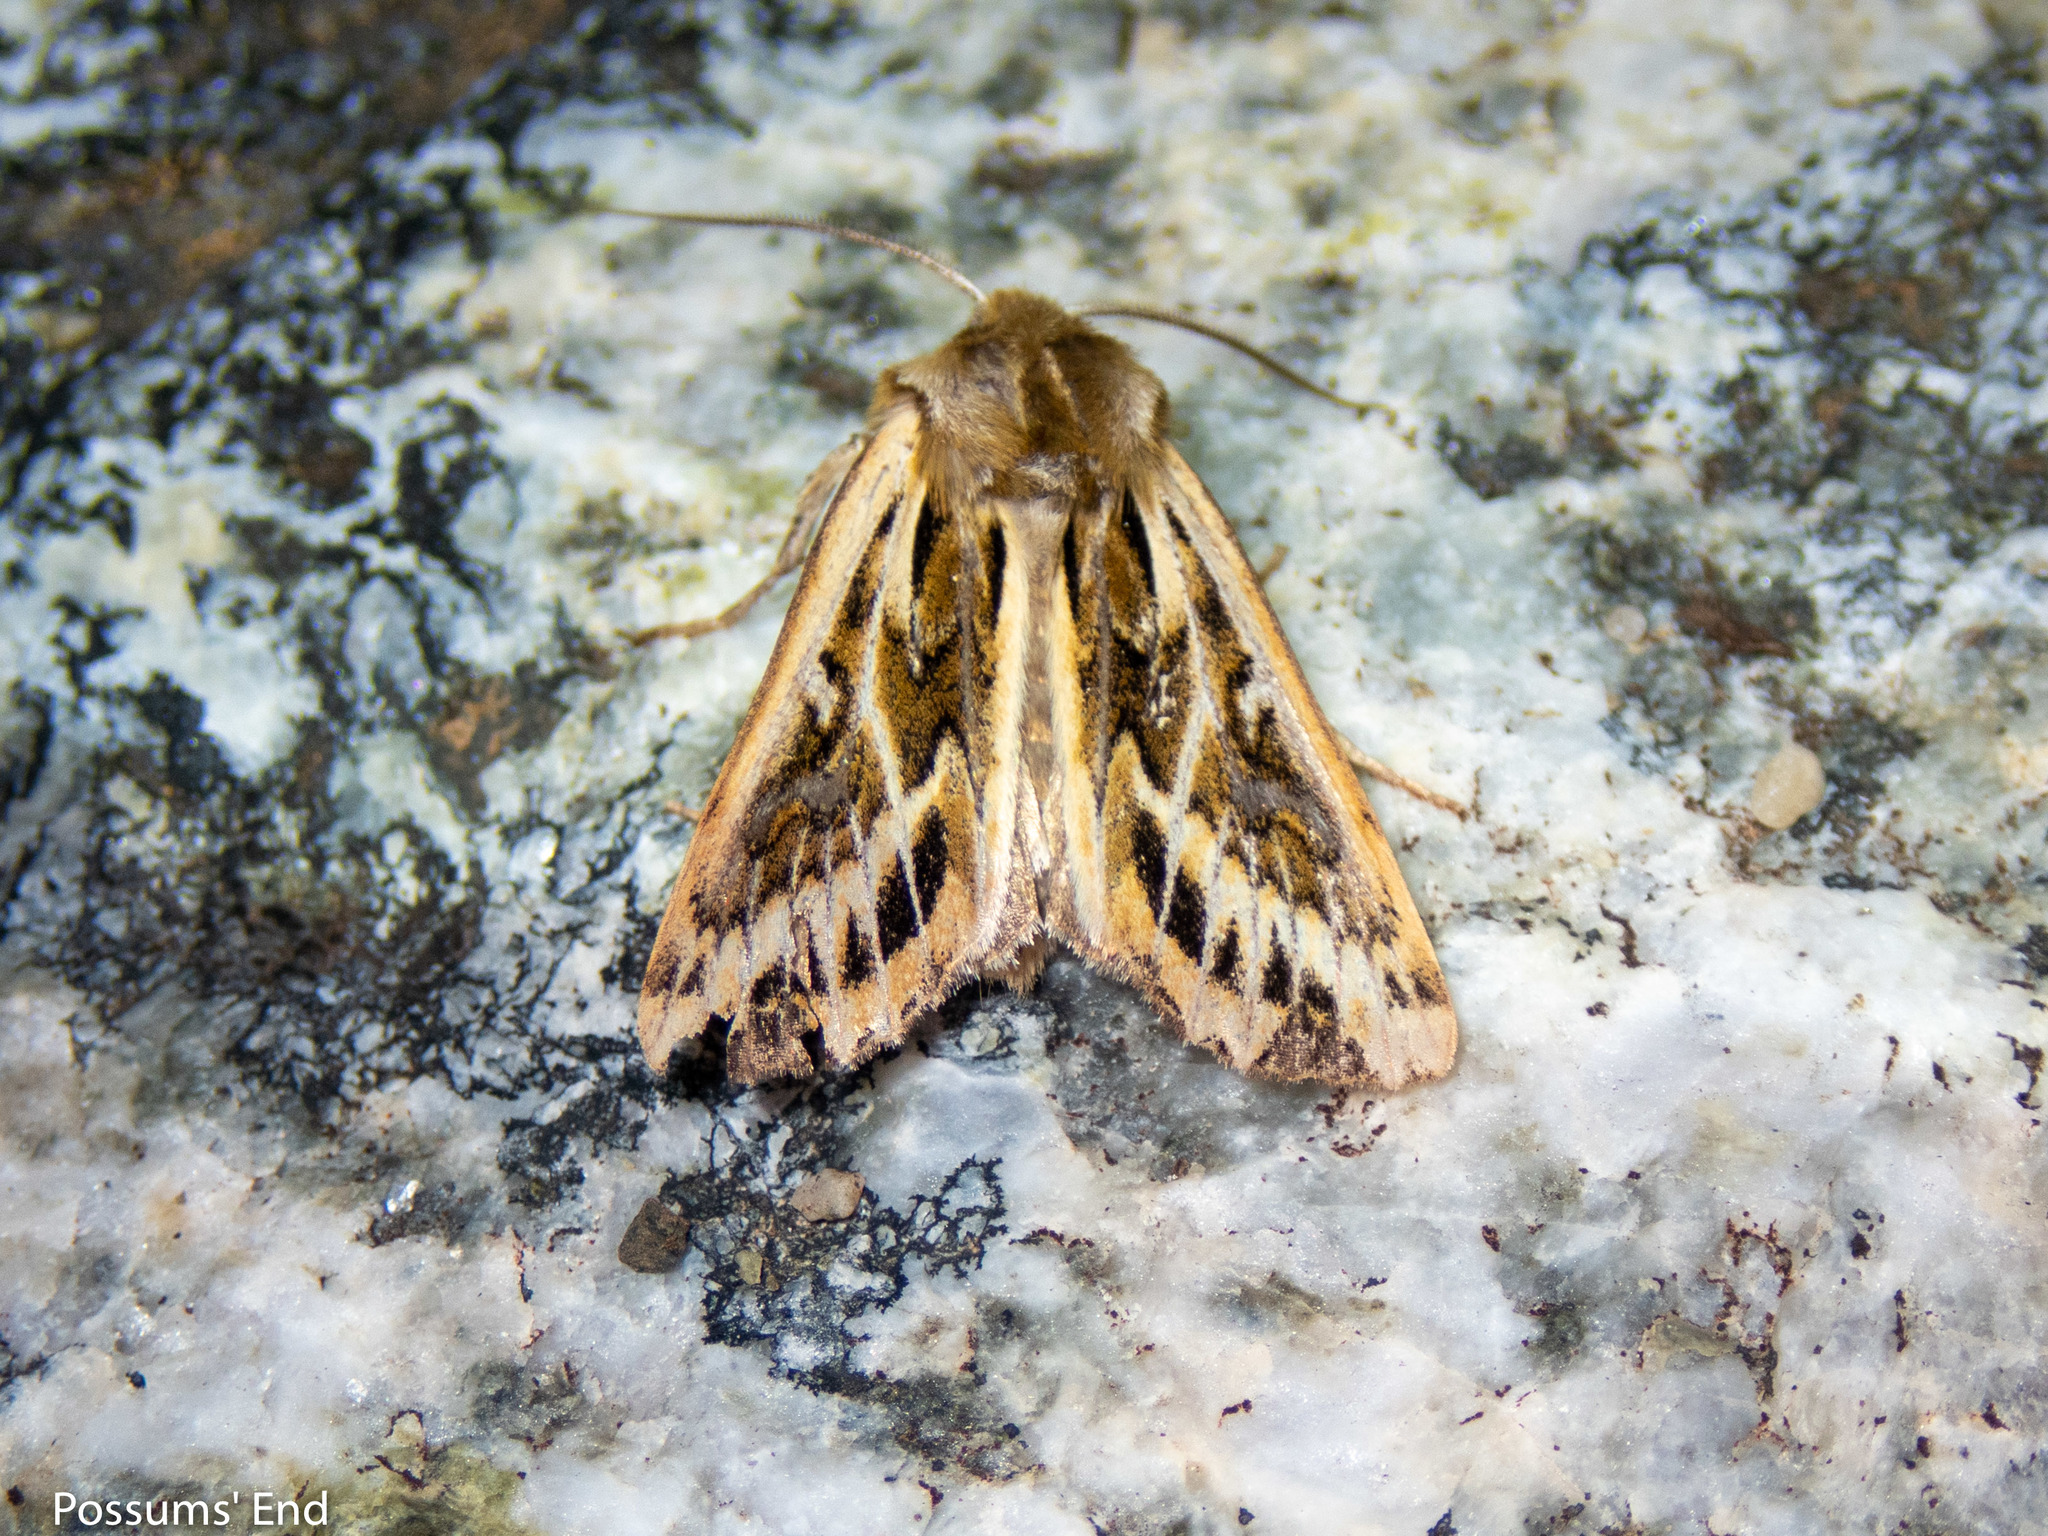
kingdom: Animalia
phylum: Arthropoda
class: Insecta
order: Lepidoptera
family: Noctuidae
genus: Ichneutica
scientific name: Ichneutica
